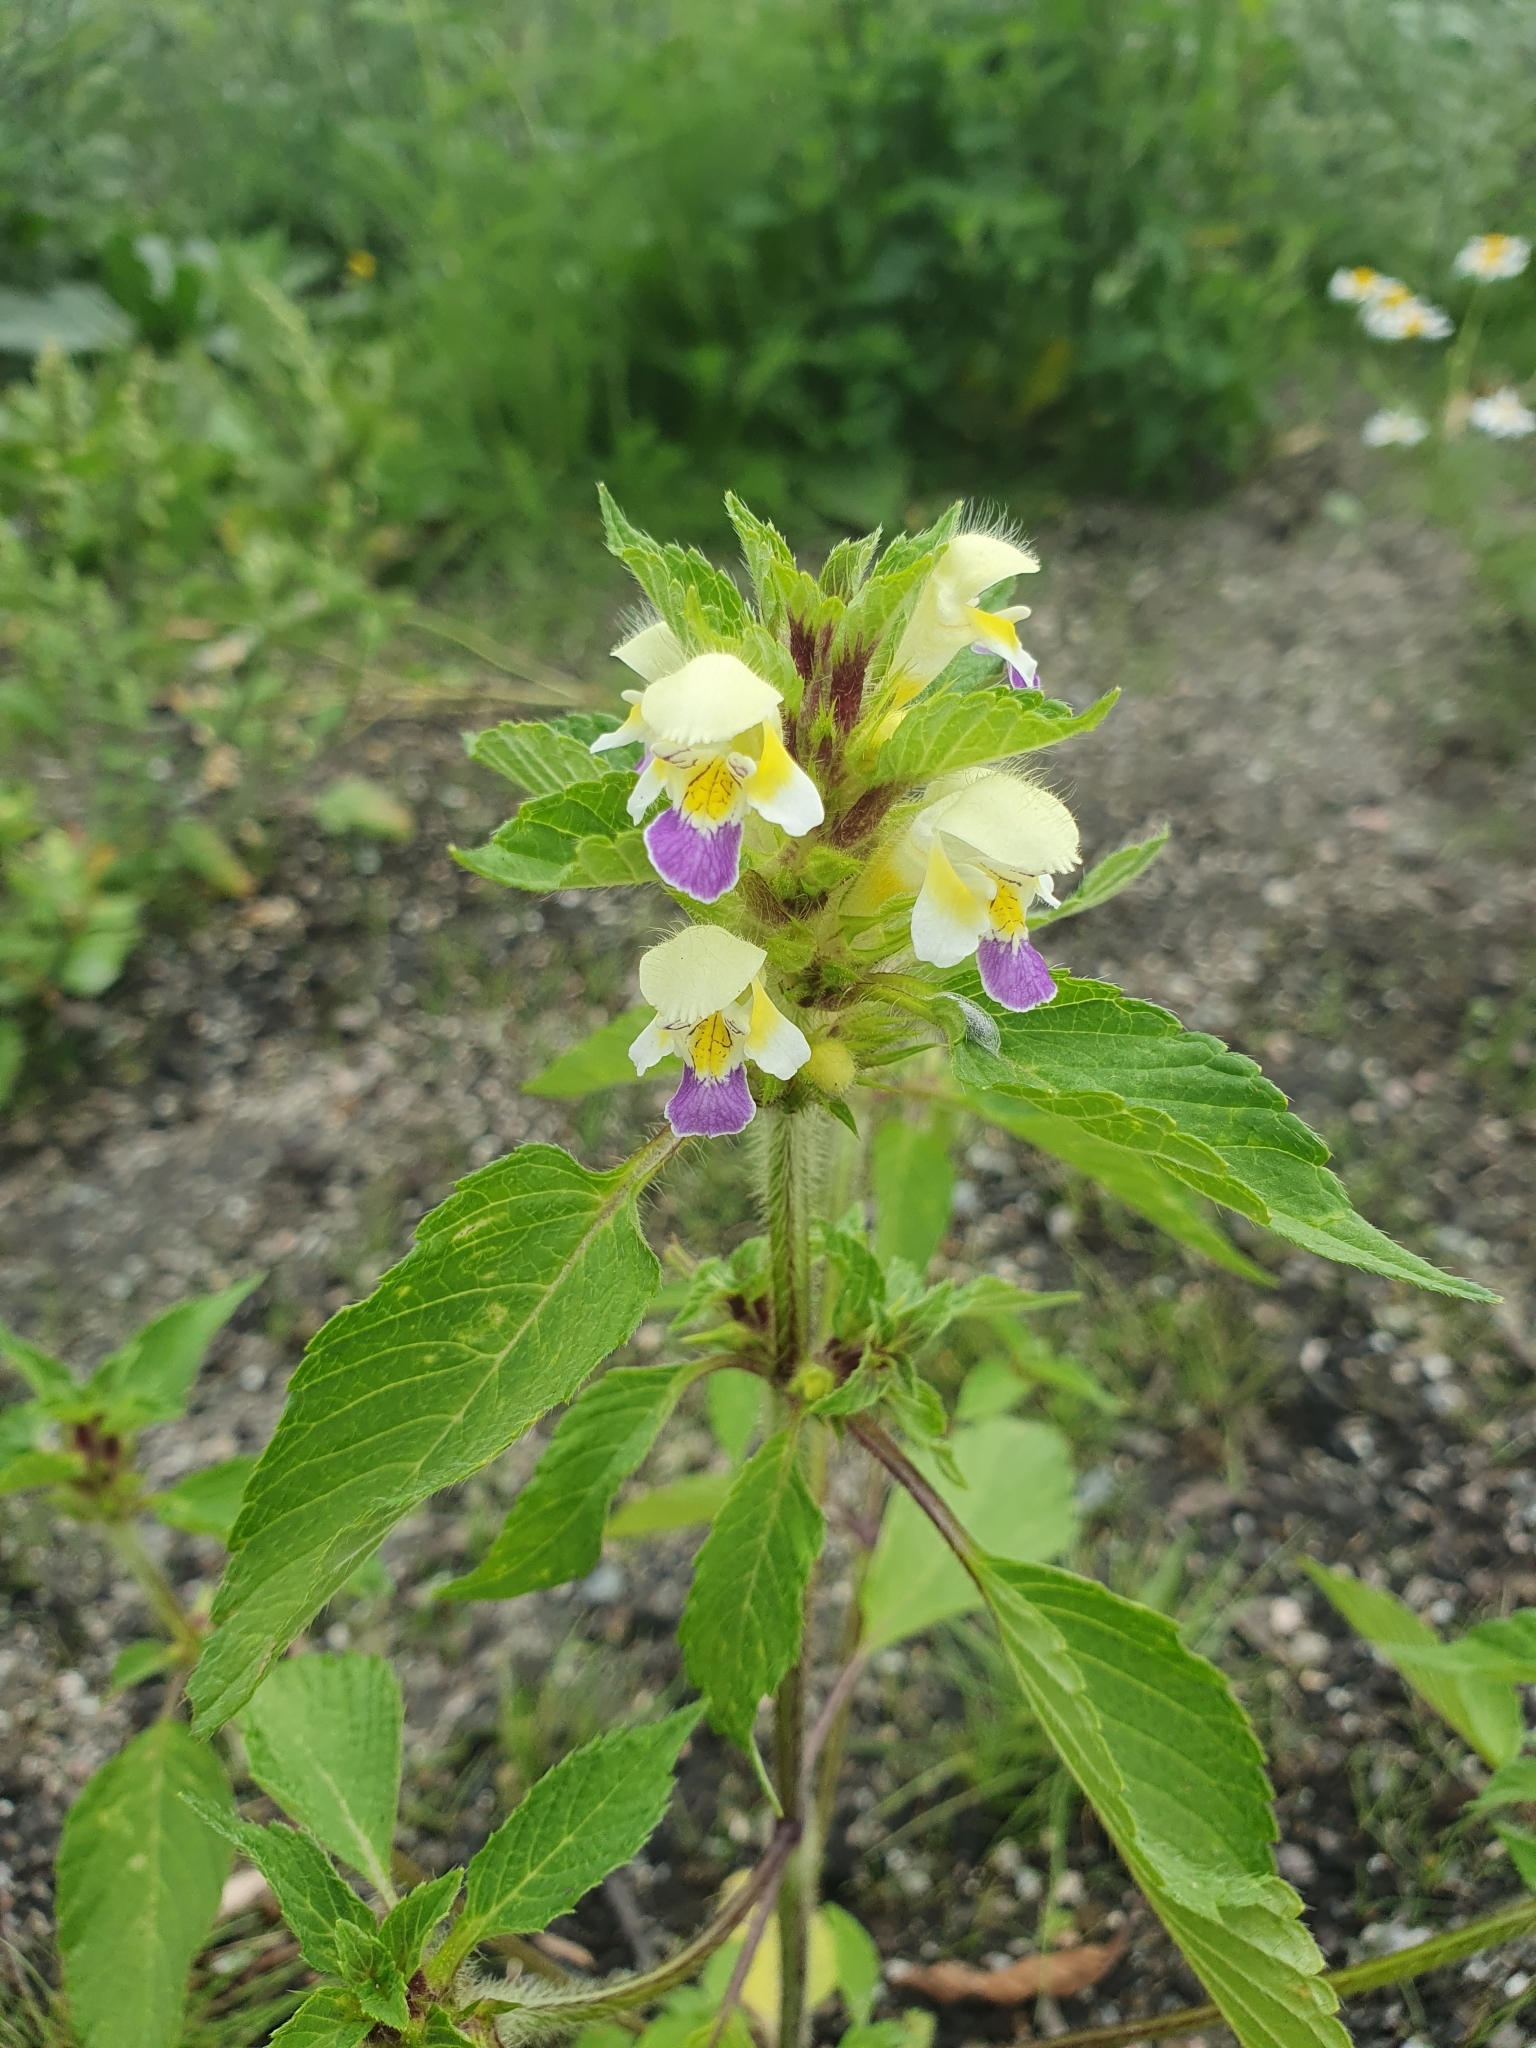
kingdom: Plantae
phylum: Tracheophyta
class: Magnoliopsida
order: Lamiales
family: Lamiaceae
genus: Galeopsis
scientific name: Galeopsis speciosa
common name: Large-flowered hemp-nettle
